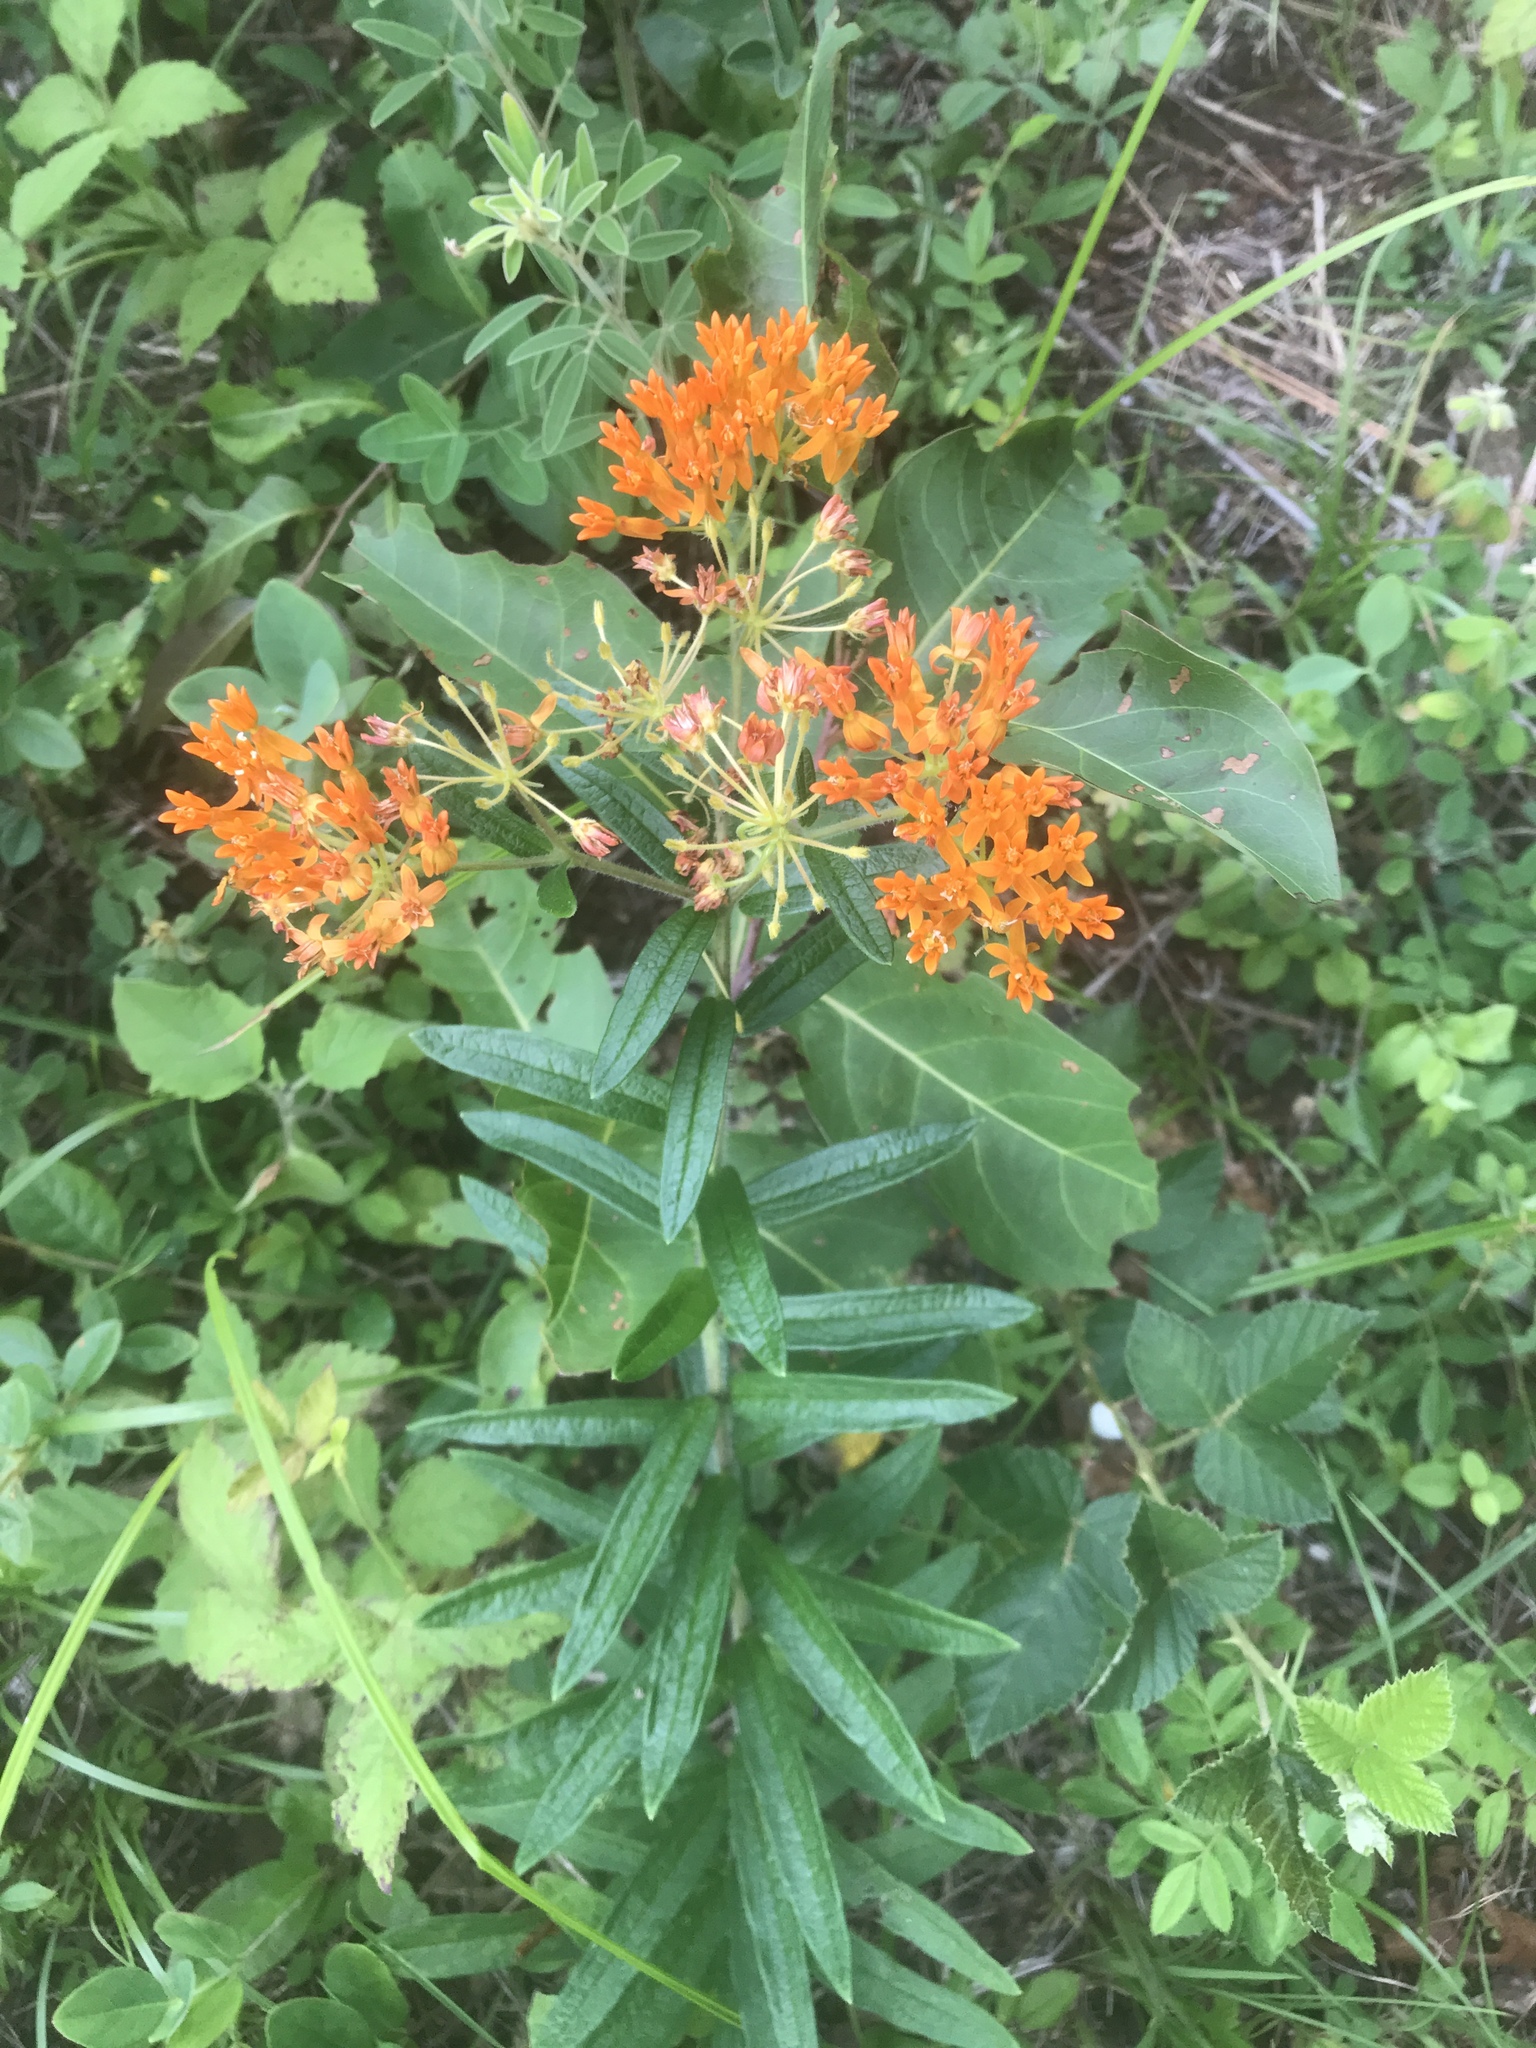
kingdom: Plantae
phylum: Tracheophyta
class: Magnoliopsida
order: Gentianales
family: Apocynaceae
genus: Asclepias
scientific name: Asclepias tuberosa
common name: Butterfly milkweed
